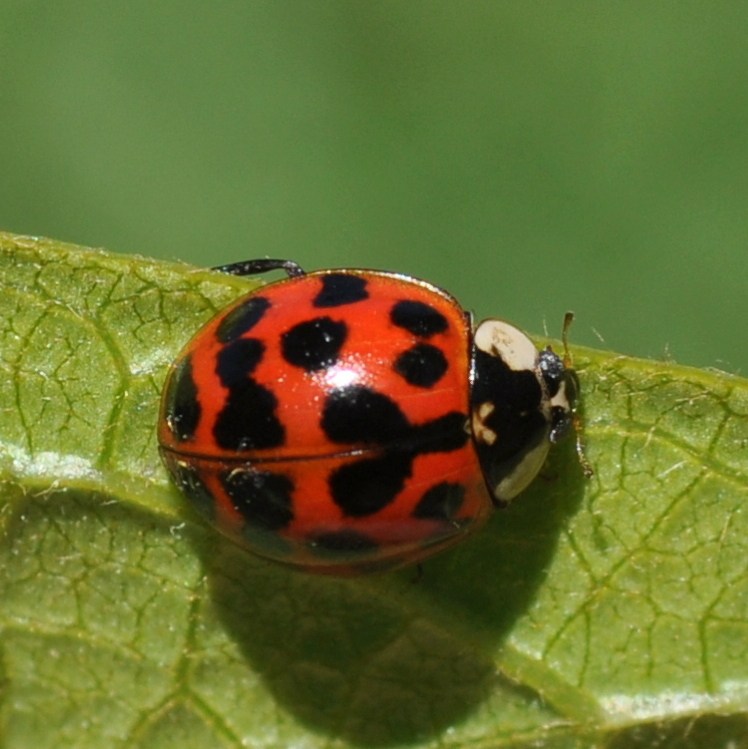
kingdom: Animalia
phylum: Arthropoda
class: Insecta
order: Coleoptera
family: Coccinellidae
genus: Harmonia
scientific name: Harmonia axyridis
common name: Harlequin ladybird
